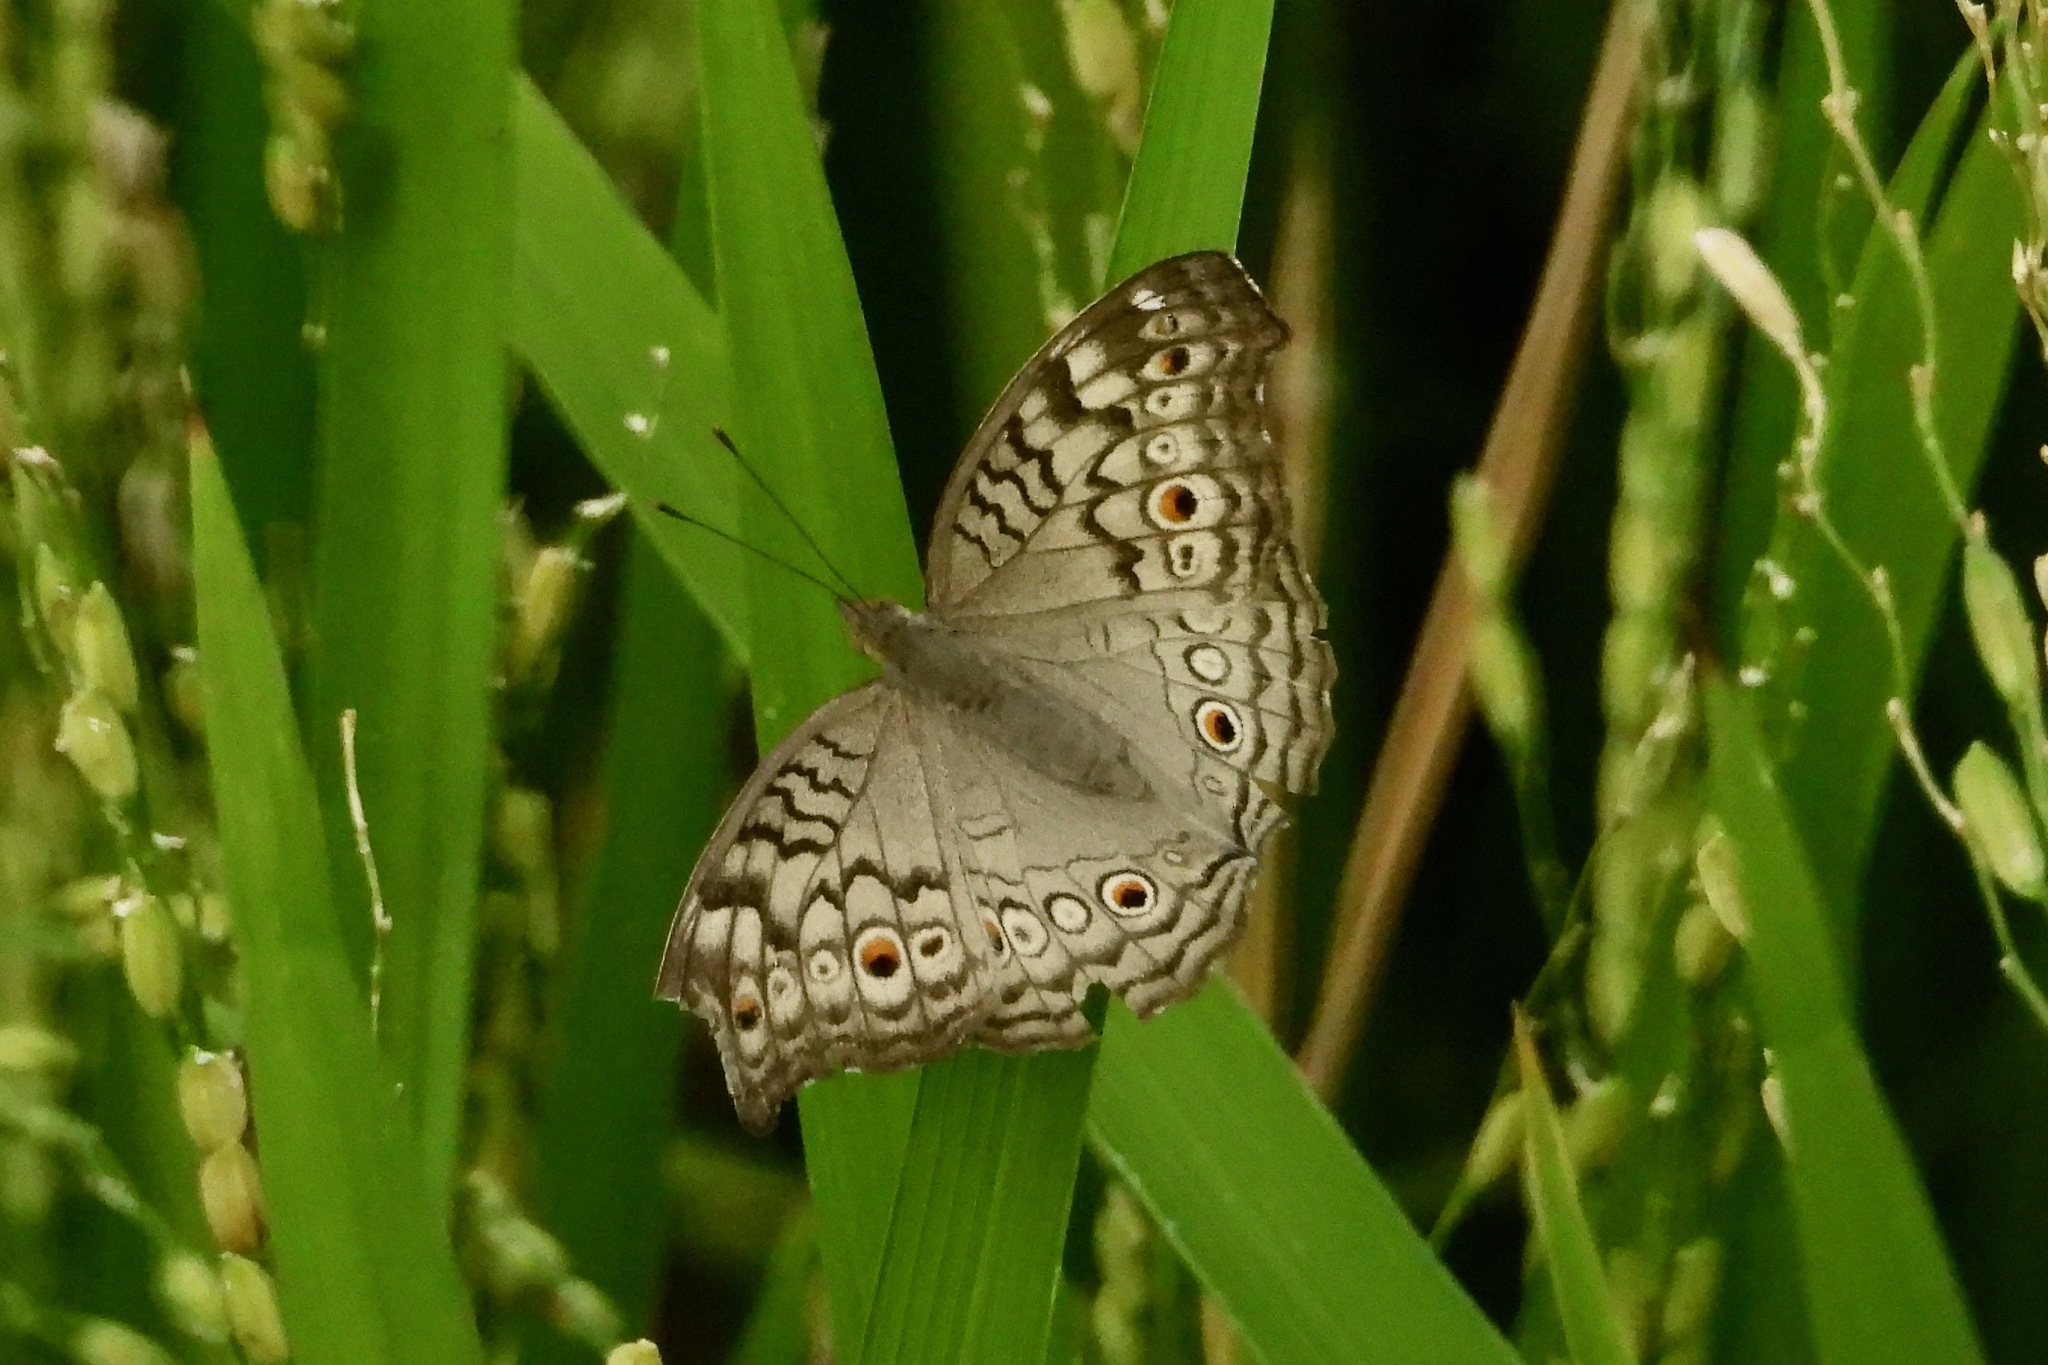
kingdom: Animalia
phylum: Arthropoda
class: Insecta
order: Lepidoptera
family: Nymphalidae
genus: Junonia
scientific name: Junonia atlites
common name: Grey pansy
